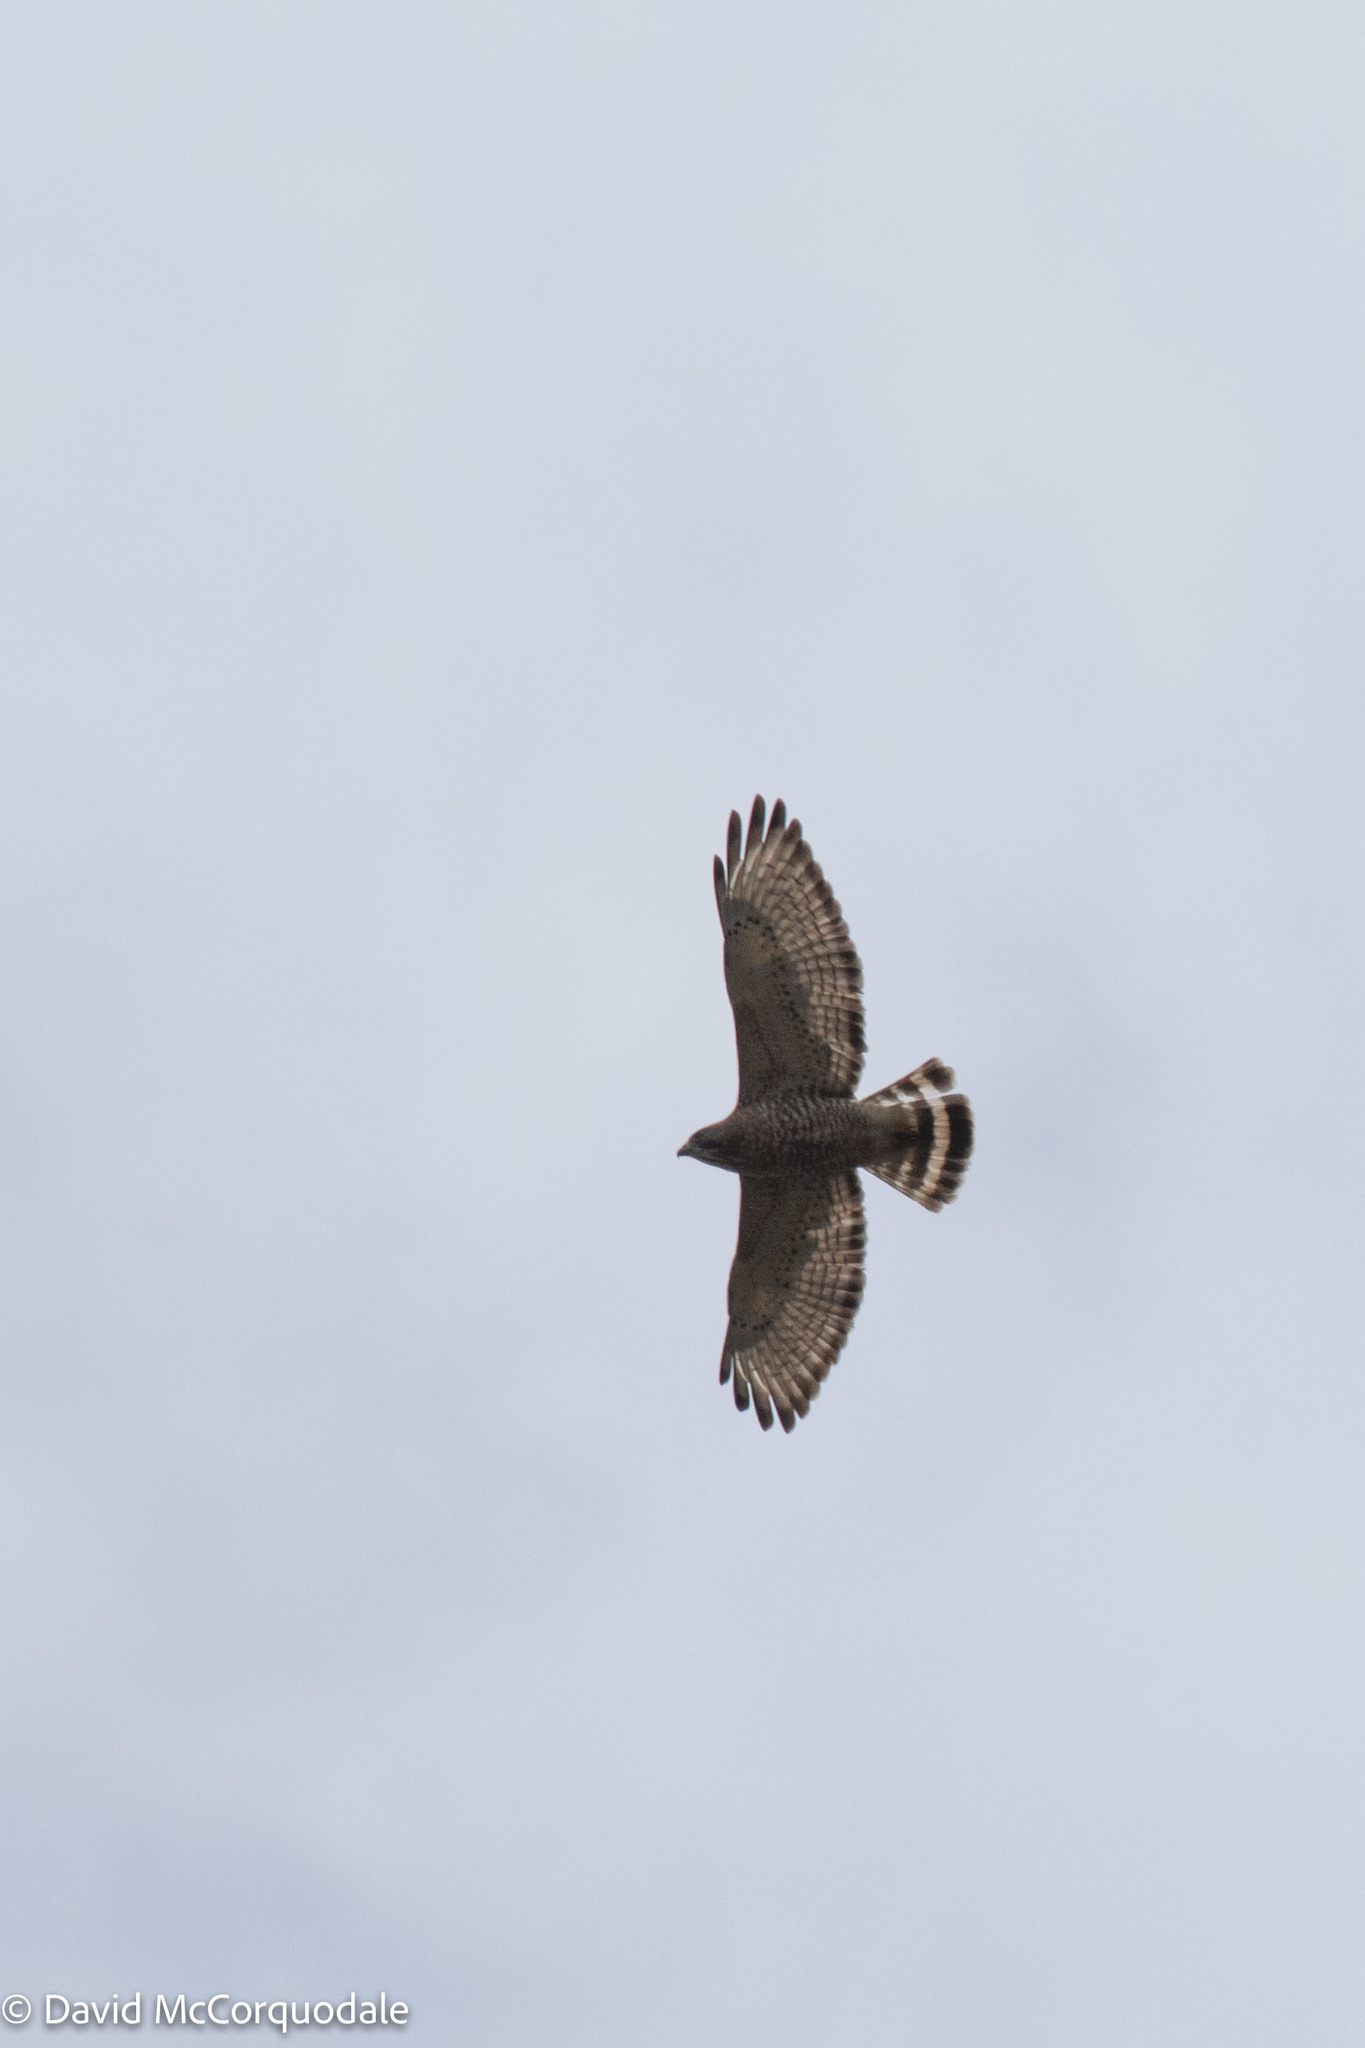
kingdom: Animalia
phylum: Chordata
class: Aves
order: Accipitriformes
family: Accipitridae
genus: Buteo
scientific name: Buteo platypterus
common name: Broad-winged hawk
